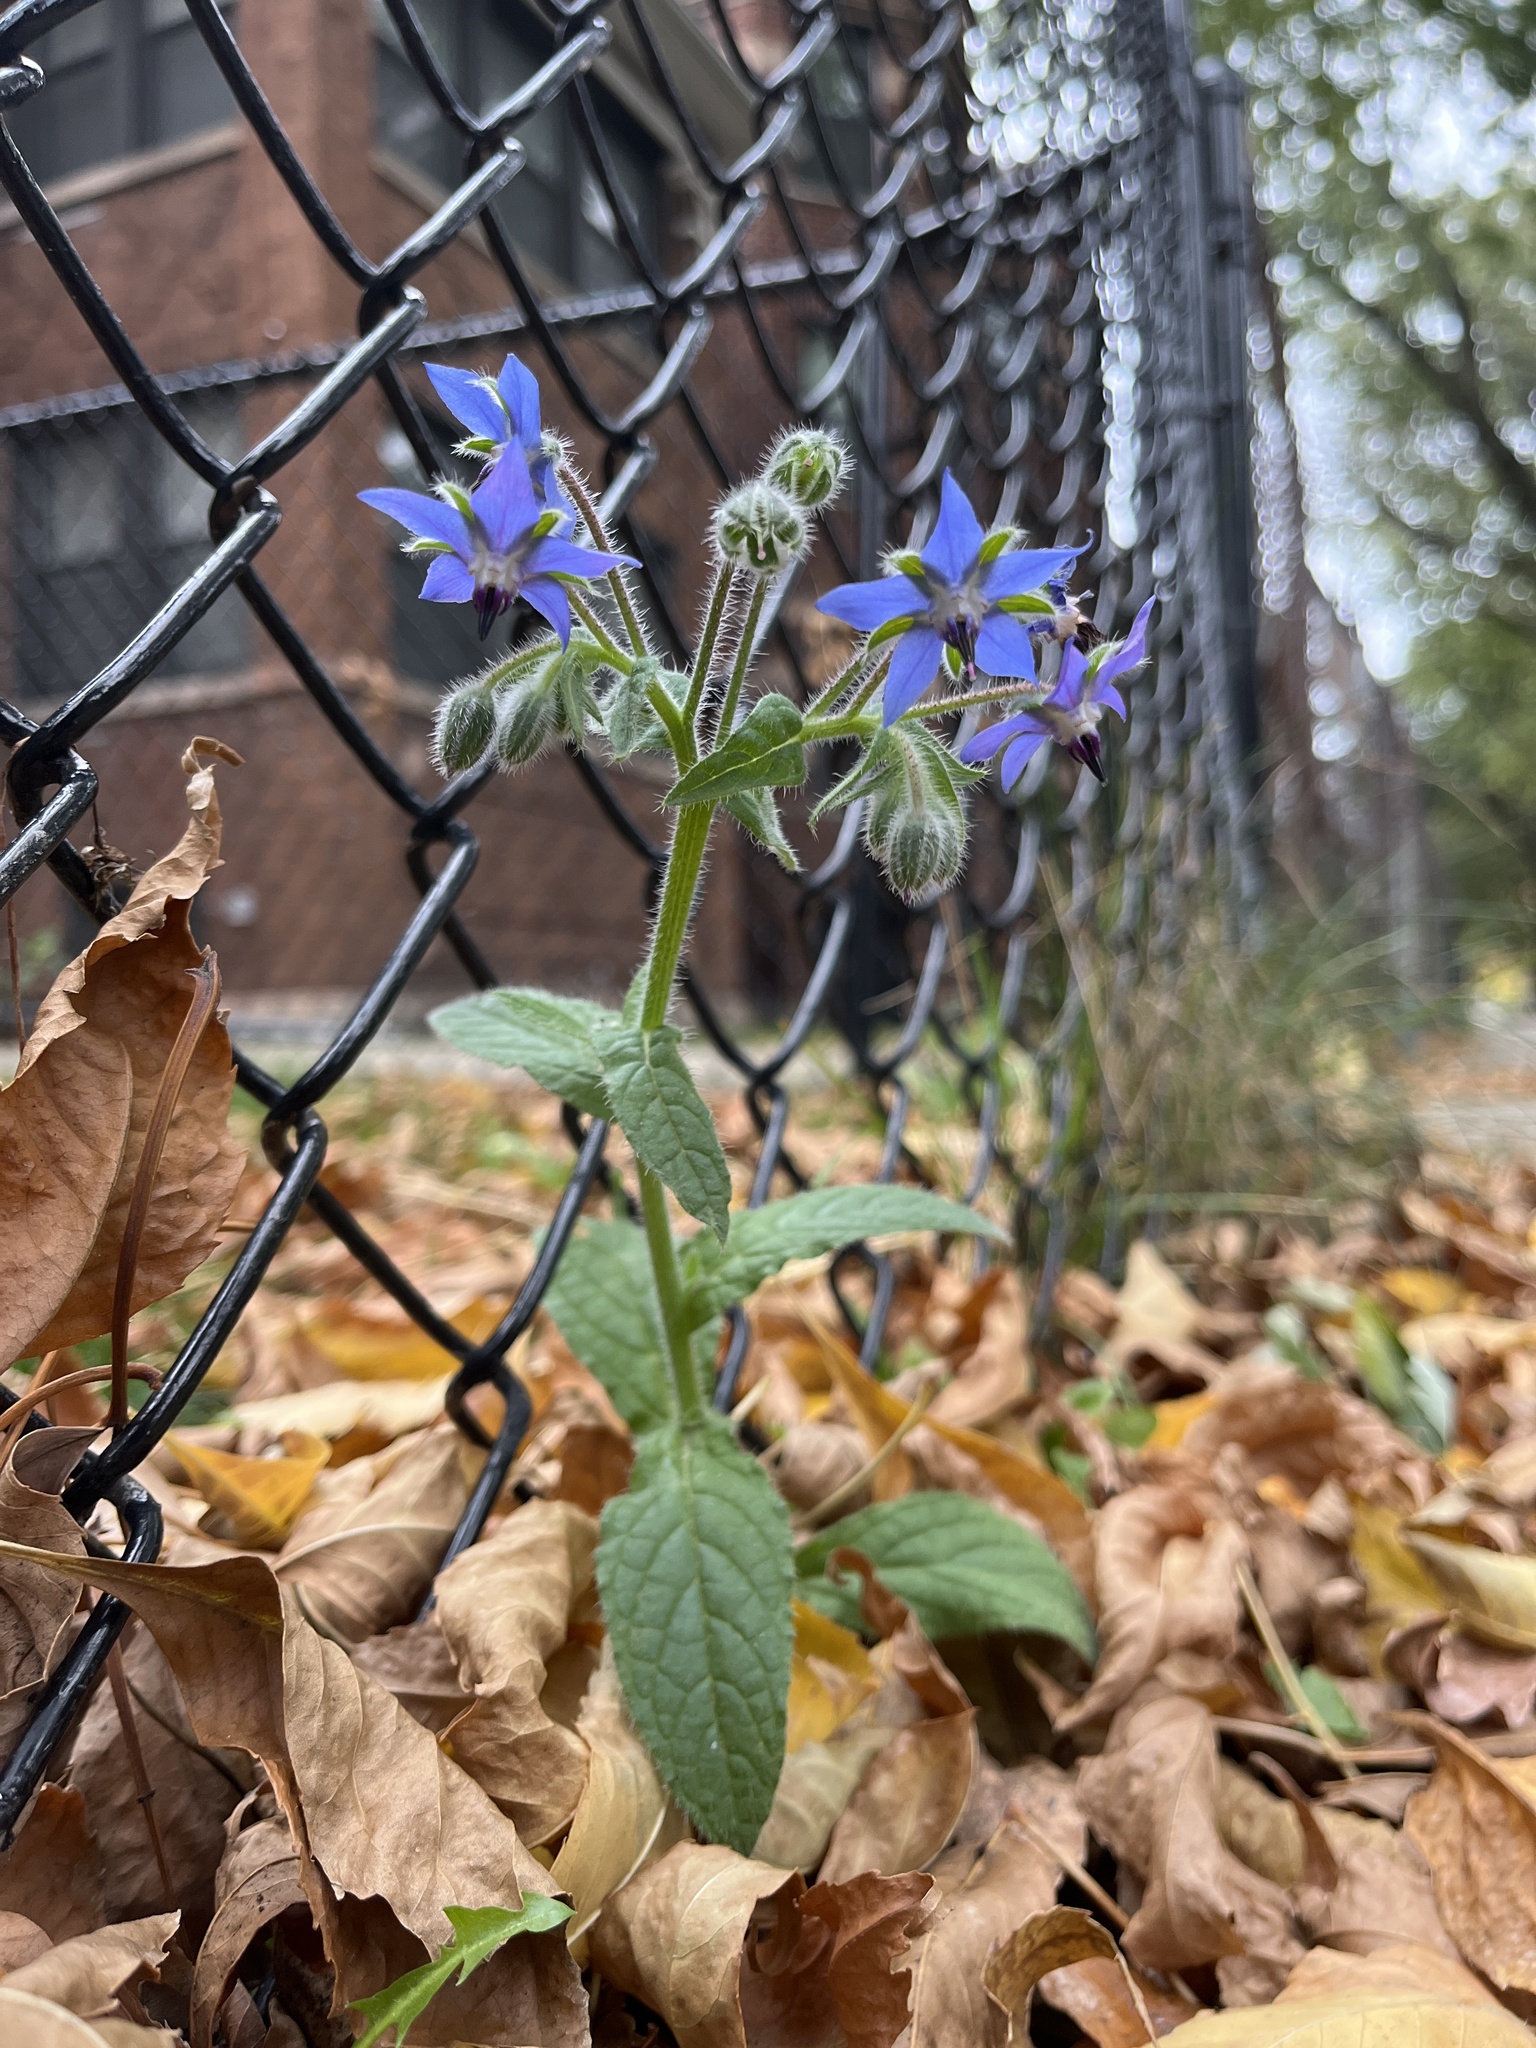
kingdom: Plantae
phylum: Tracheophyta
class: Magnoliopsida
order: Boraginales
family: Boraginaceae
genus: Borago
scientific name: Borago officinalis
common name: Borage
